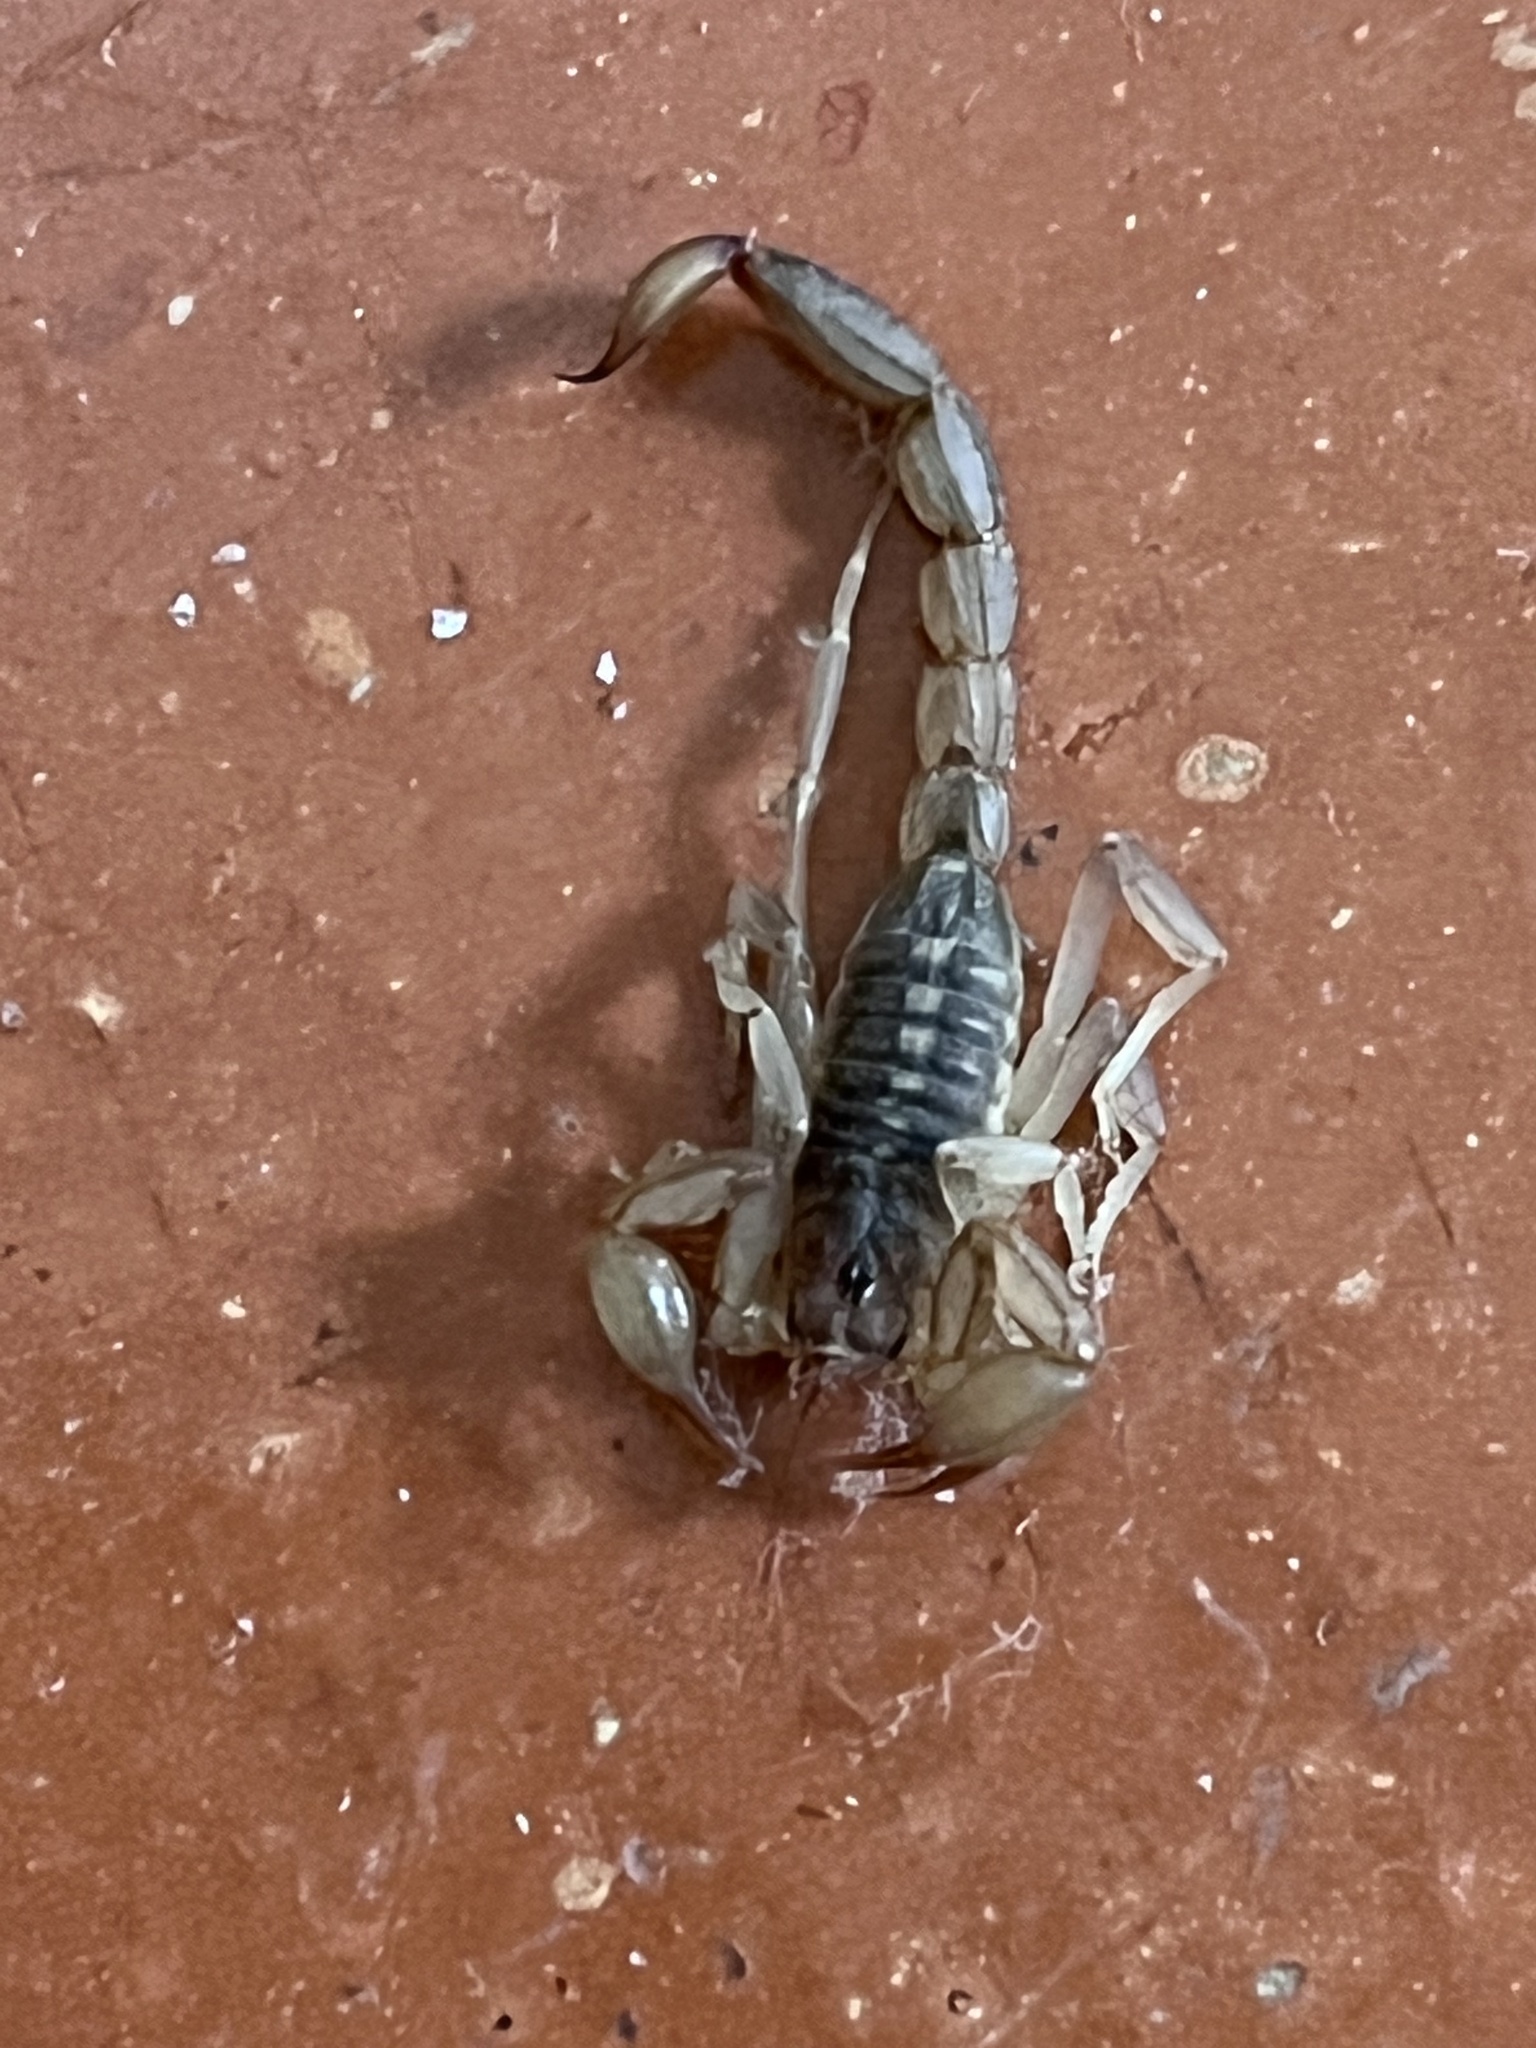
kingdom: Animalia
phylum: Arthropoda
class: Arachnida
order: Scorpiones
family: Vaejovidae
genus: Chihuahuanus
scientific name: Chihuahuanus coahuilae
